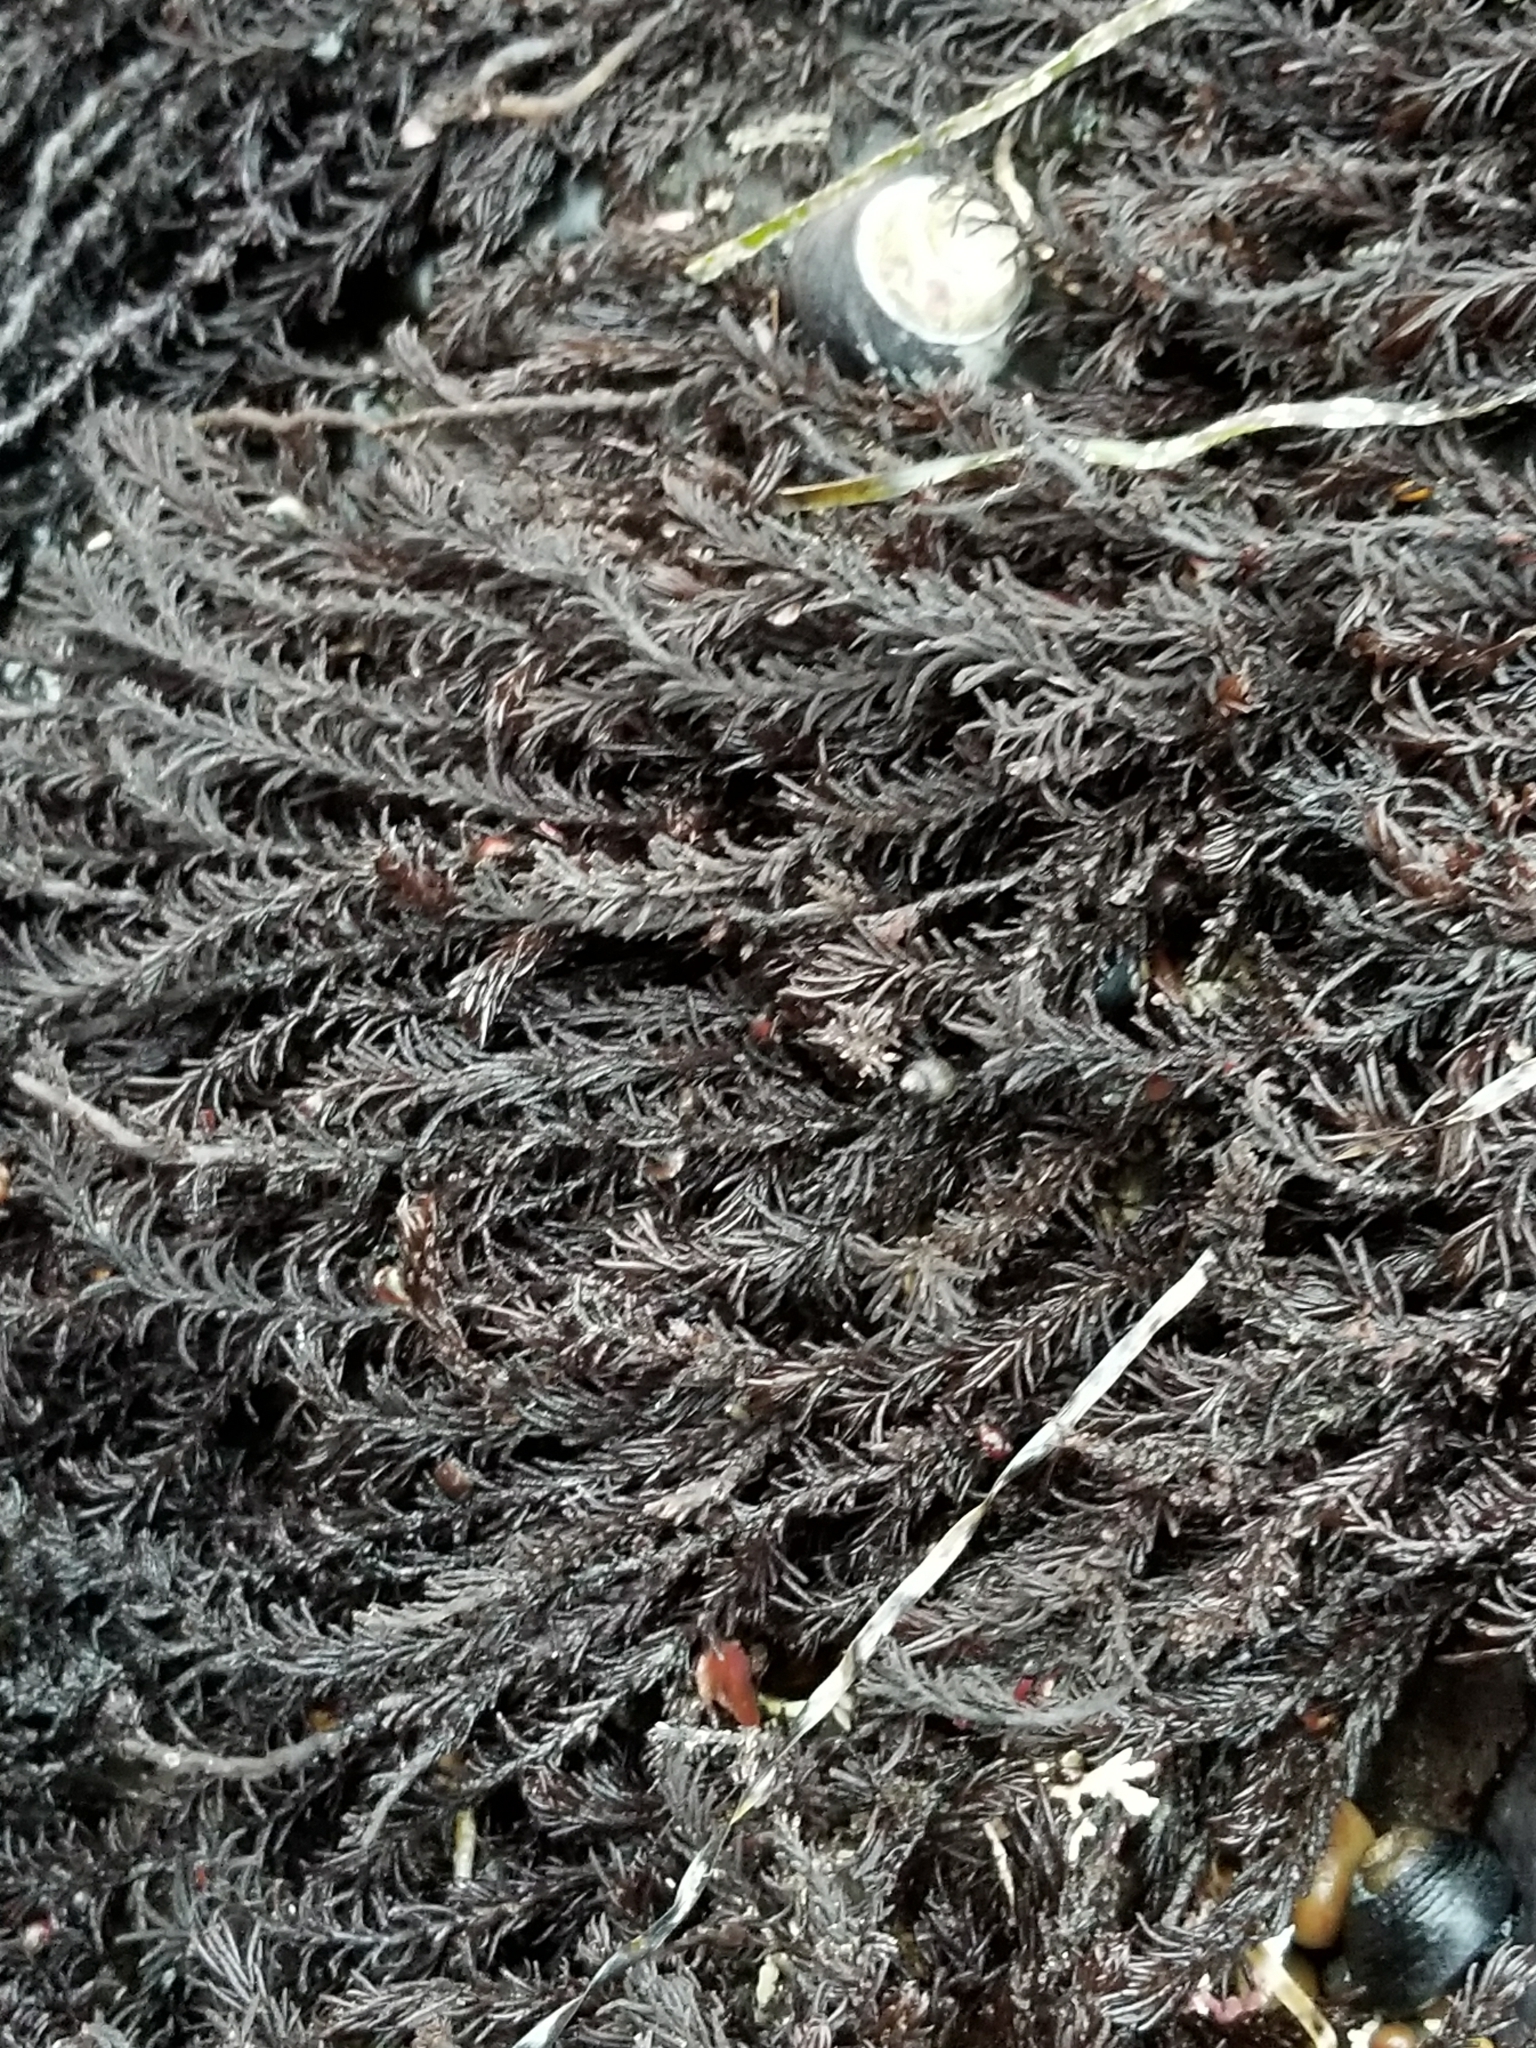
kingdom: Plantae
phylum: Rhodophyta
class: Florideophyceae
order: Ceramiales
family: Rhodomelaceae
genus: Neorhodomela
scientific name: Neorhodomela larix
